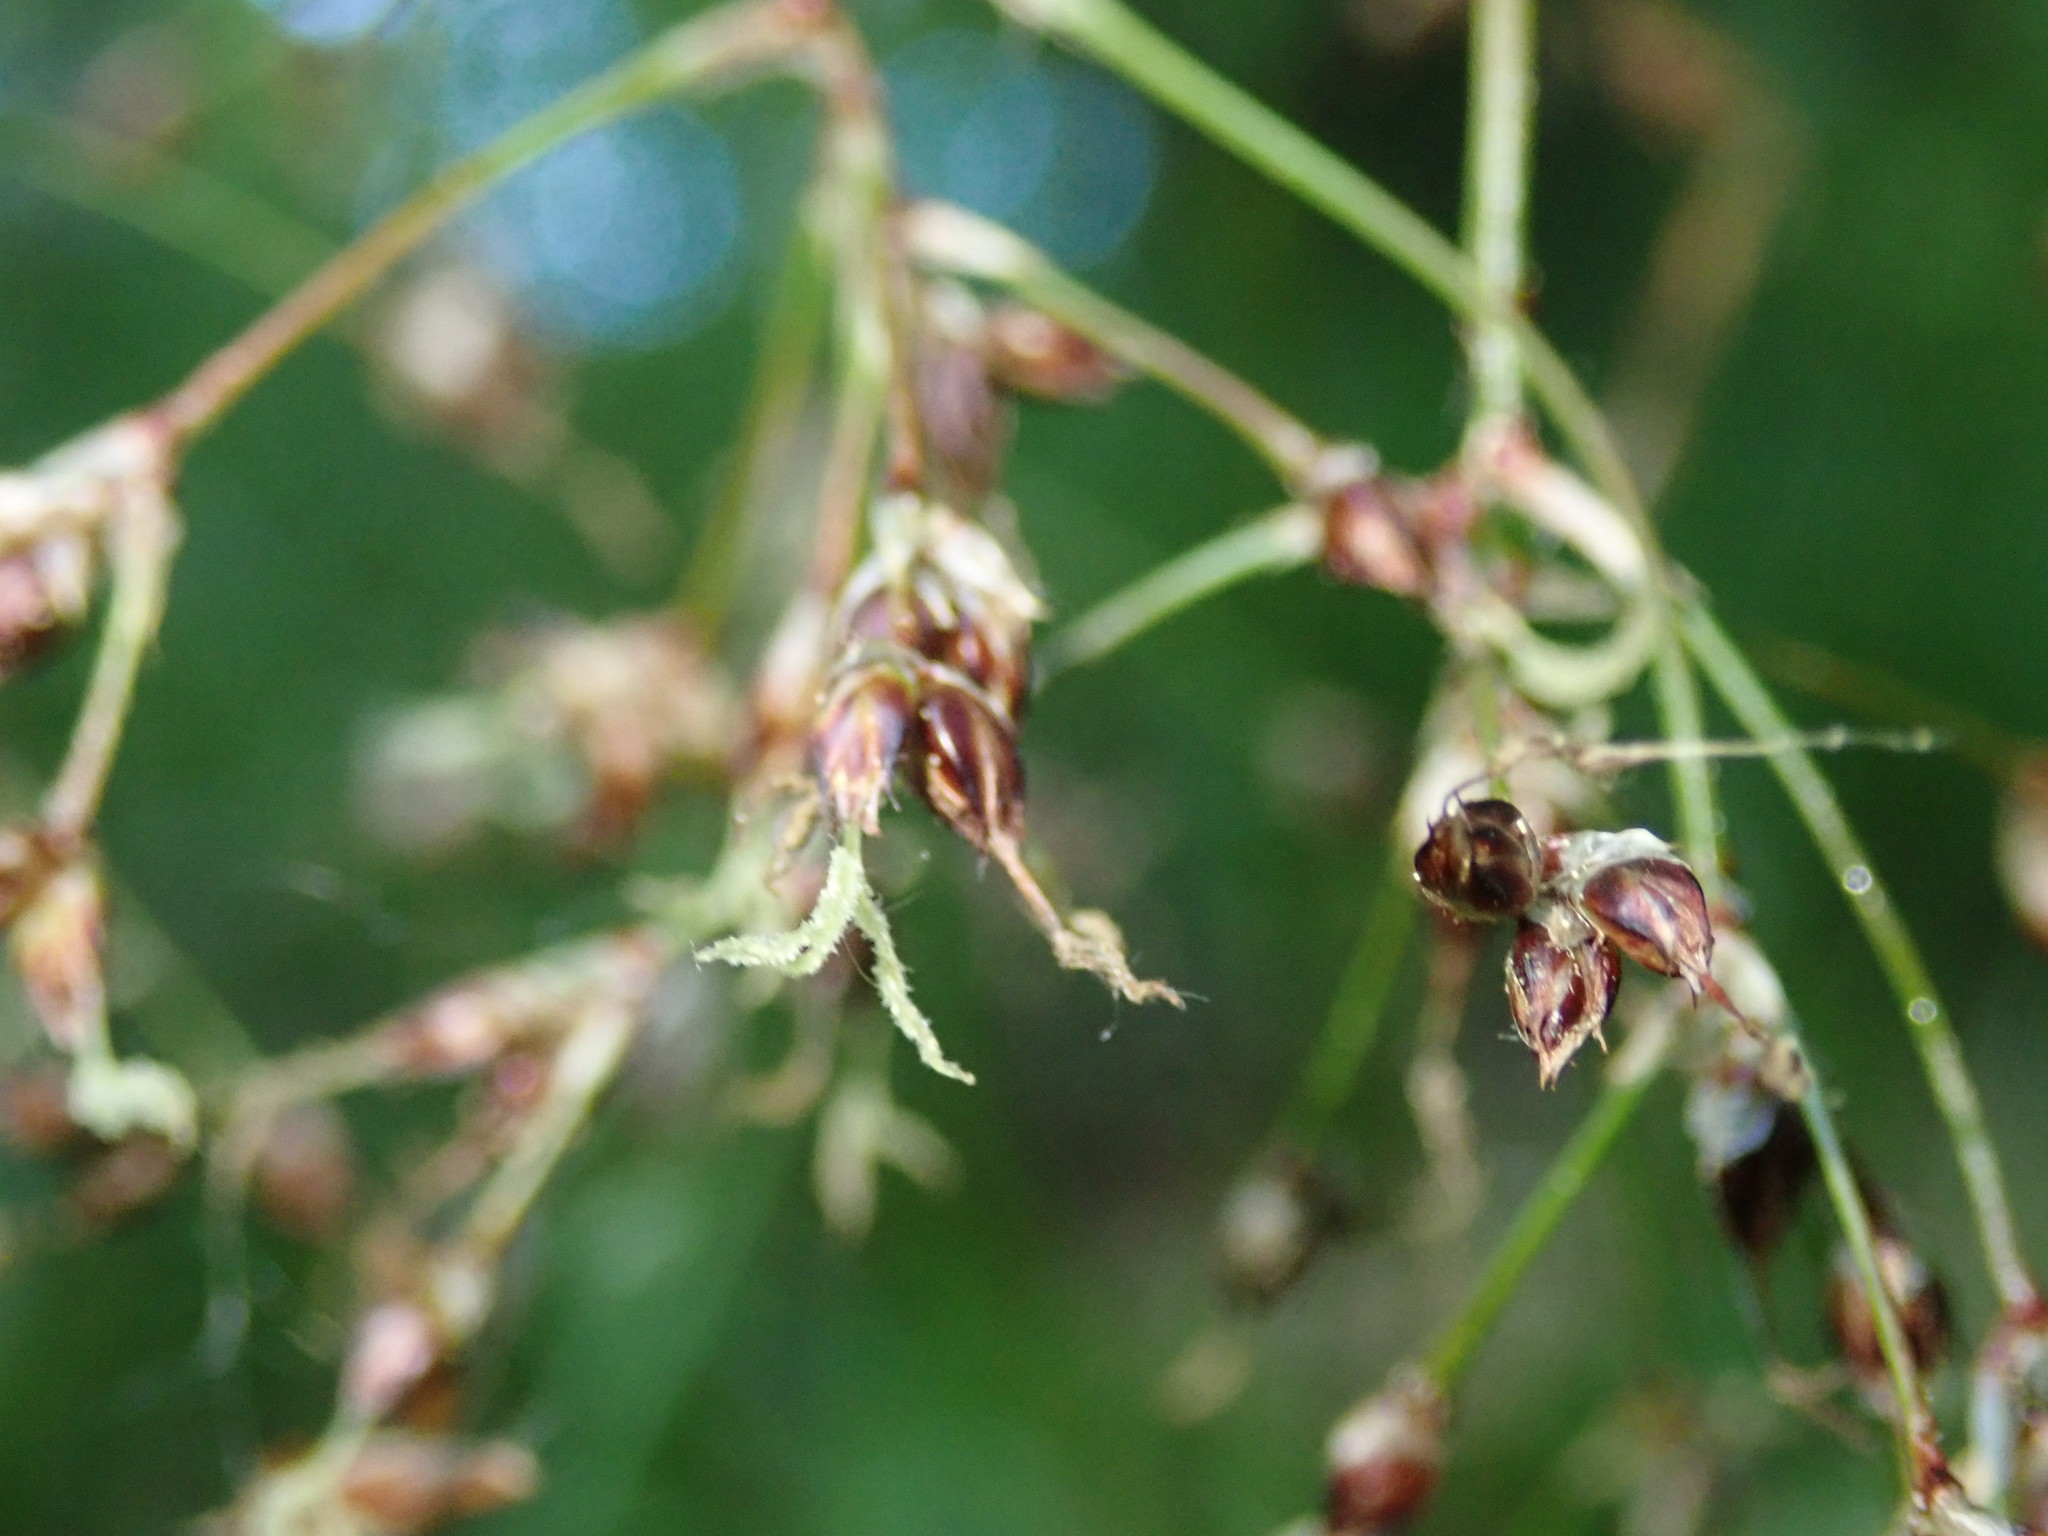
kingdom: Plantae
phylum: Tracheophyta
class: Liliopsida
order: Poales
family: Juncaceae
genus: Luzula
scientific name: Luzula sylvatica
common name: Great wood-rush
